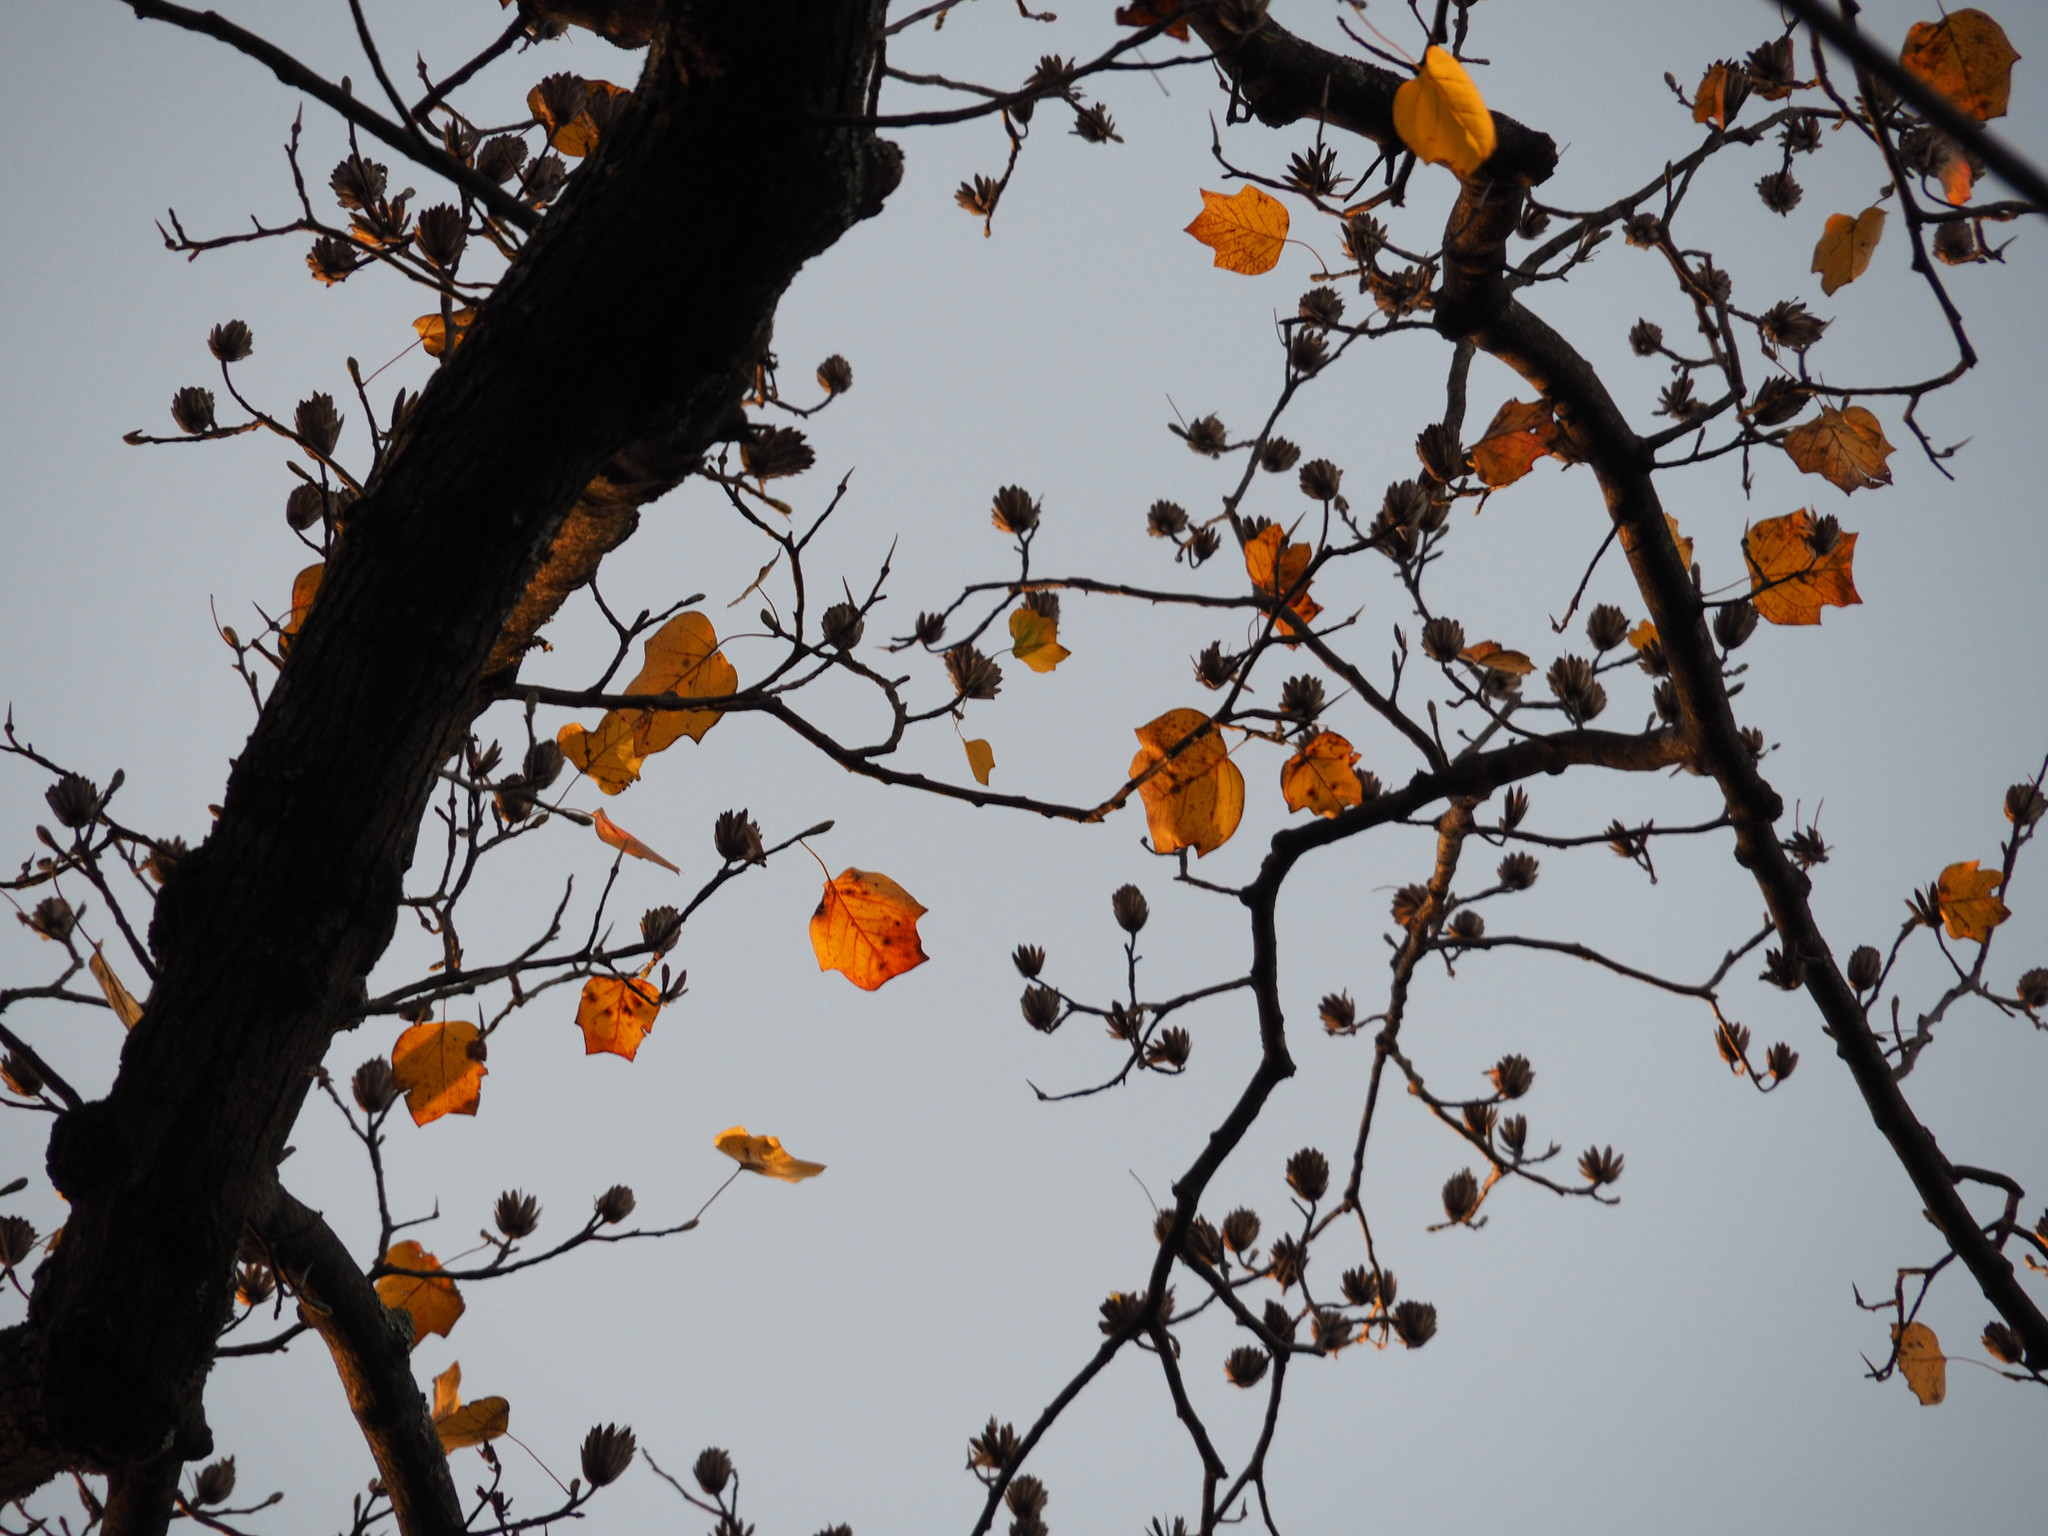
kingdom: Plantae
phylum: Tracheophyta
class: Magnoliopsida
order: Magnoliales
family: Magnoliaceae
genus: Liriodendron
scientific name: Liriodendron tulipifera
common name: Tulip tree
